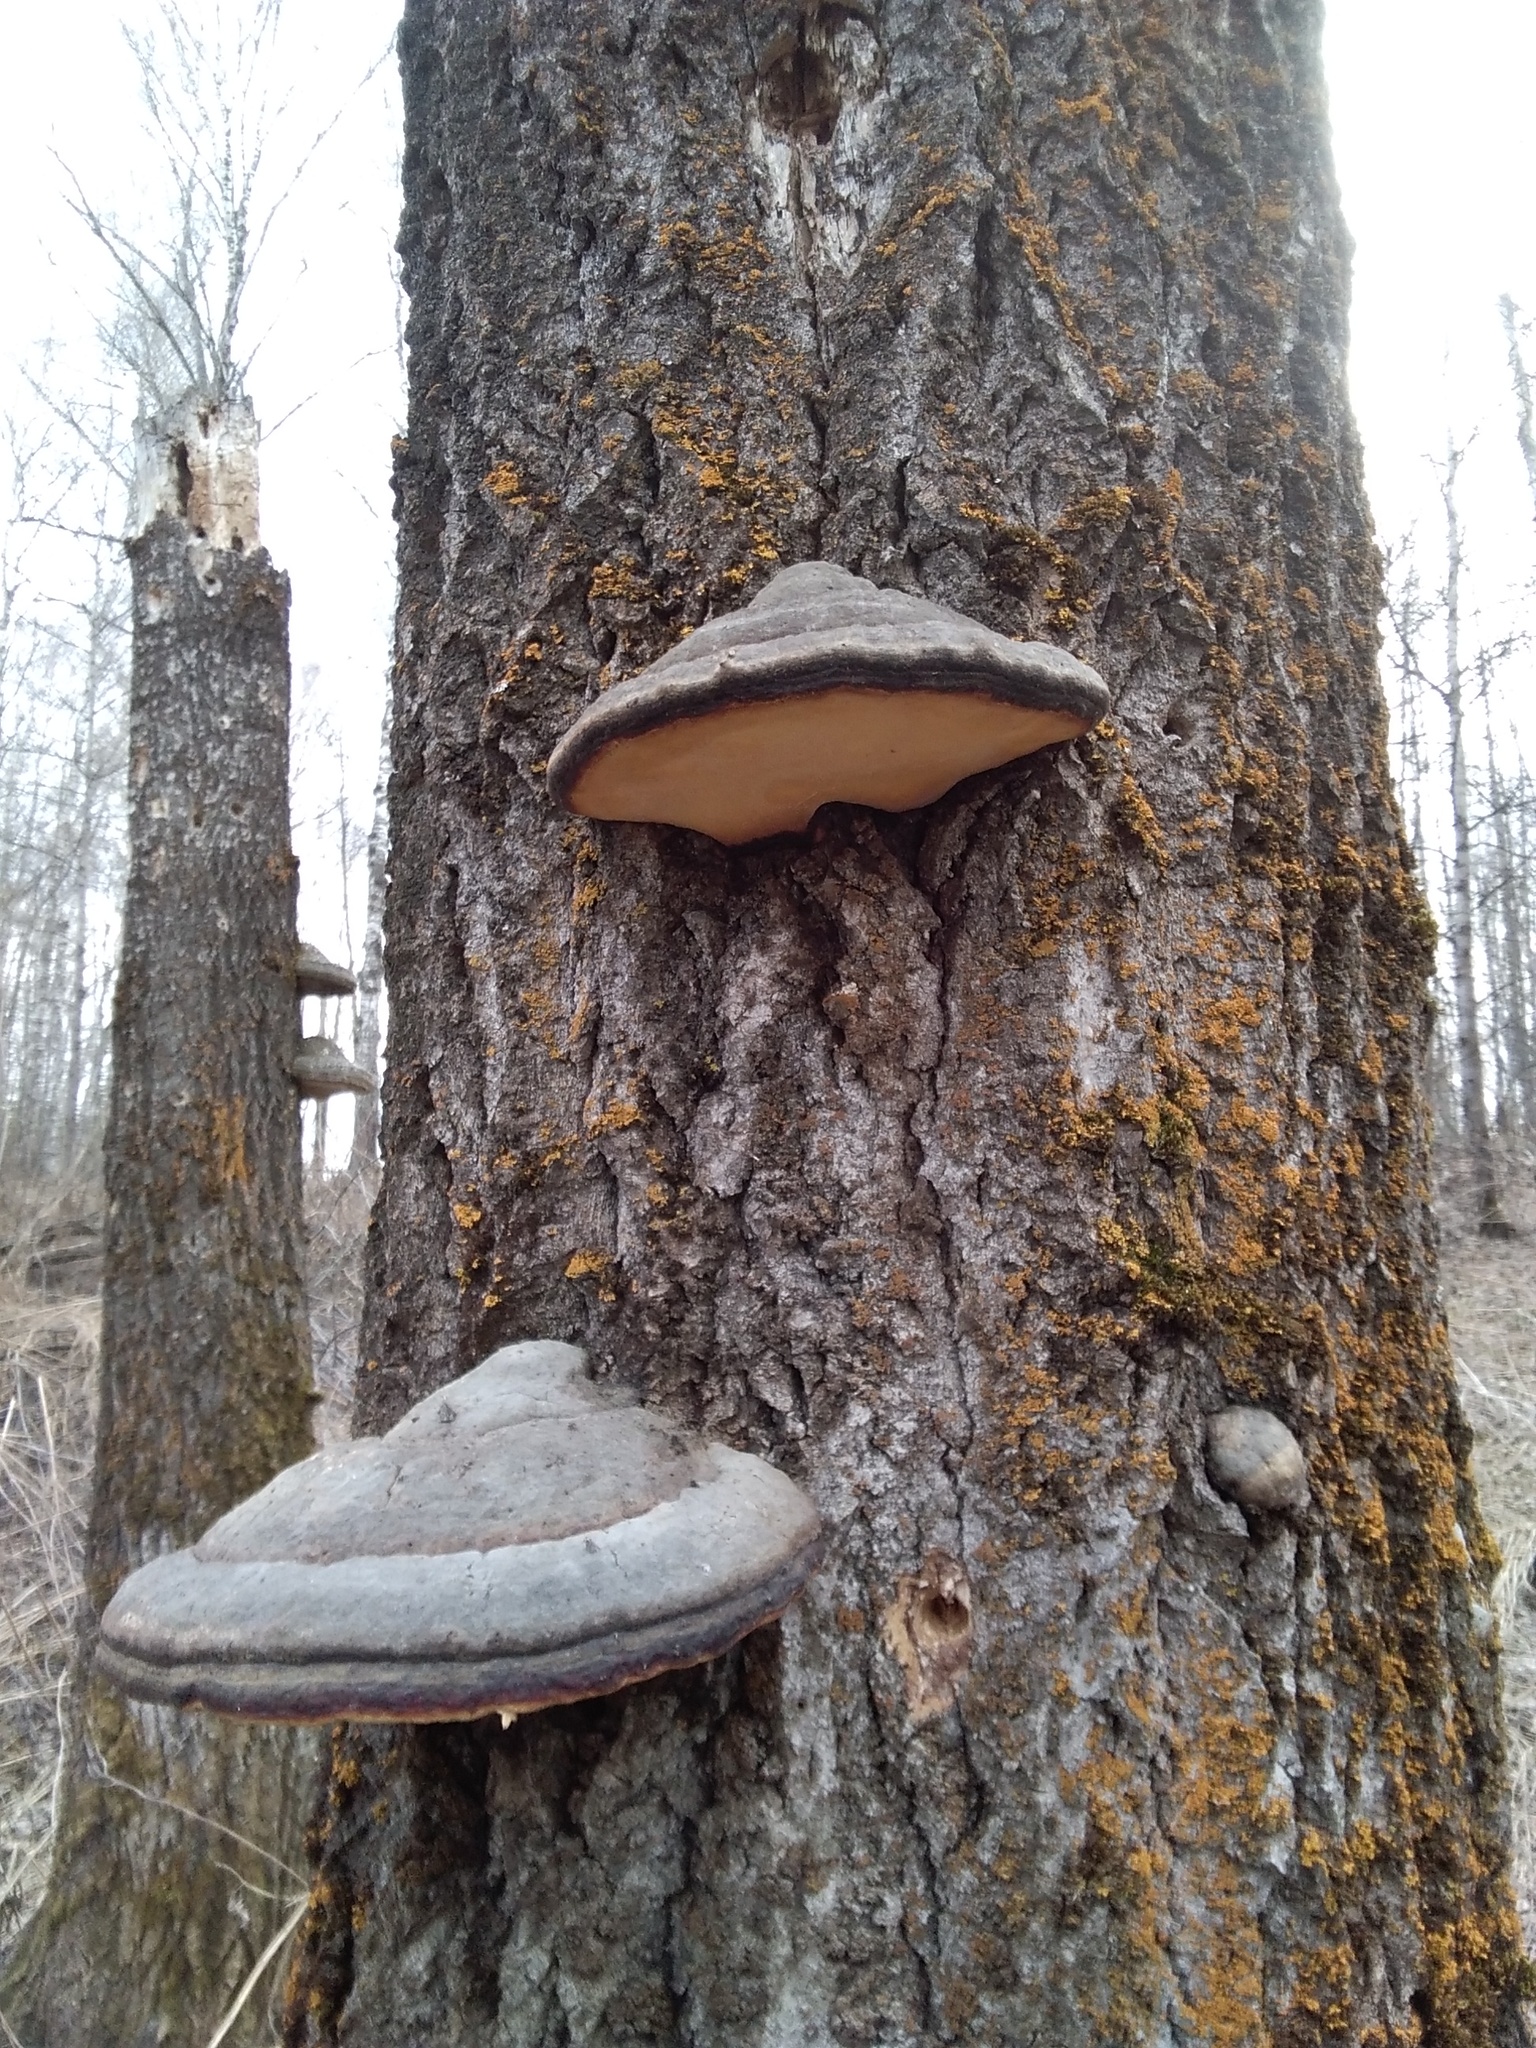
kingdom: Fungi
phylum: Basidiomycota
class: Agaricomycetes
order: Polyporales
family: Fomitopsidaceae
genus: Fomitopsis
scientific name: Fomitopsis pinicola
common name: Red-belted bracket
